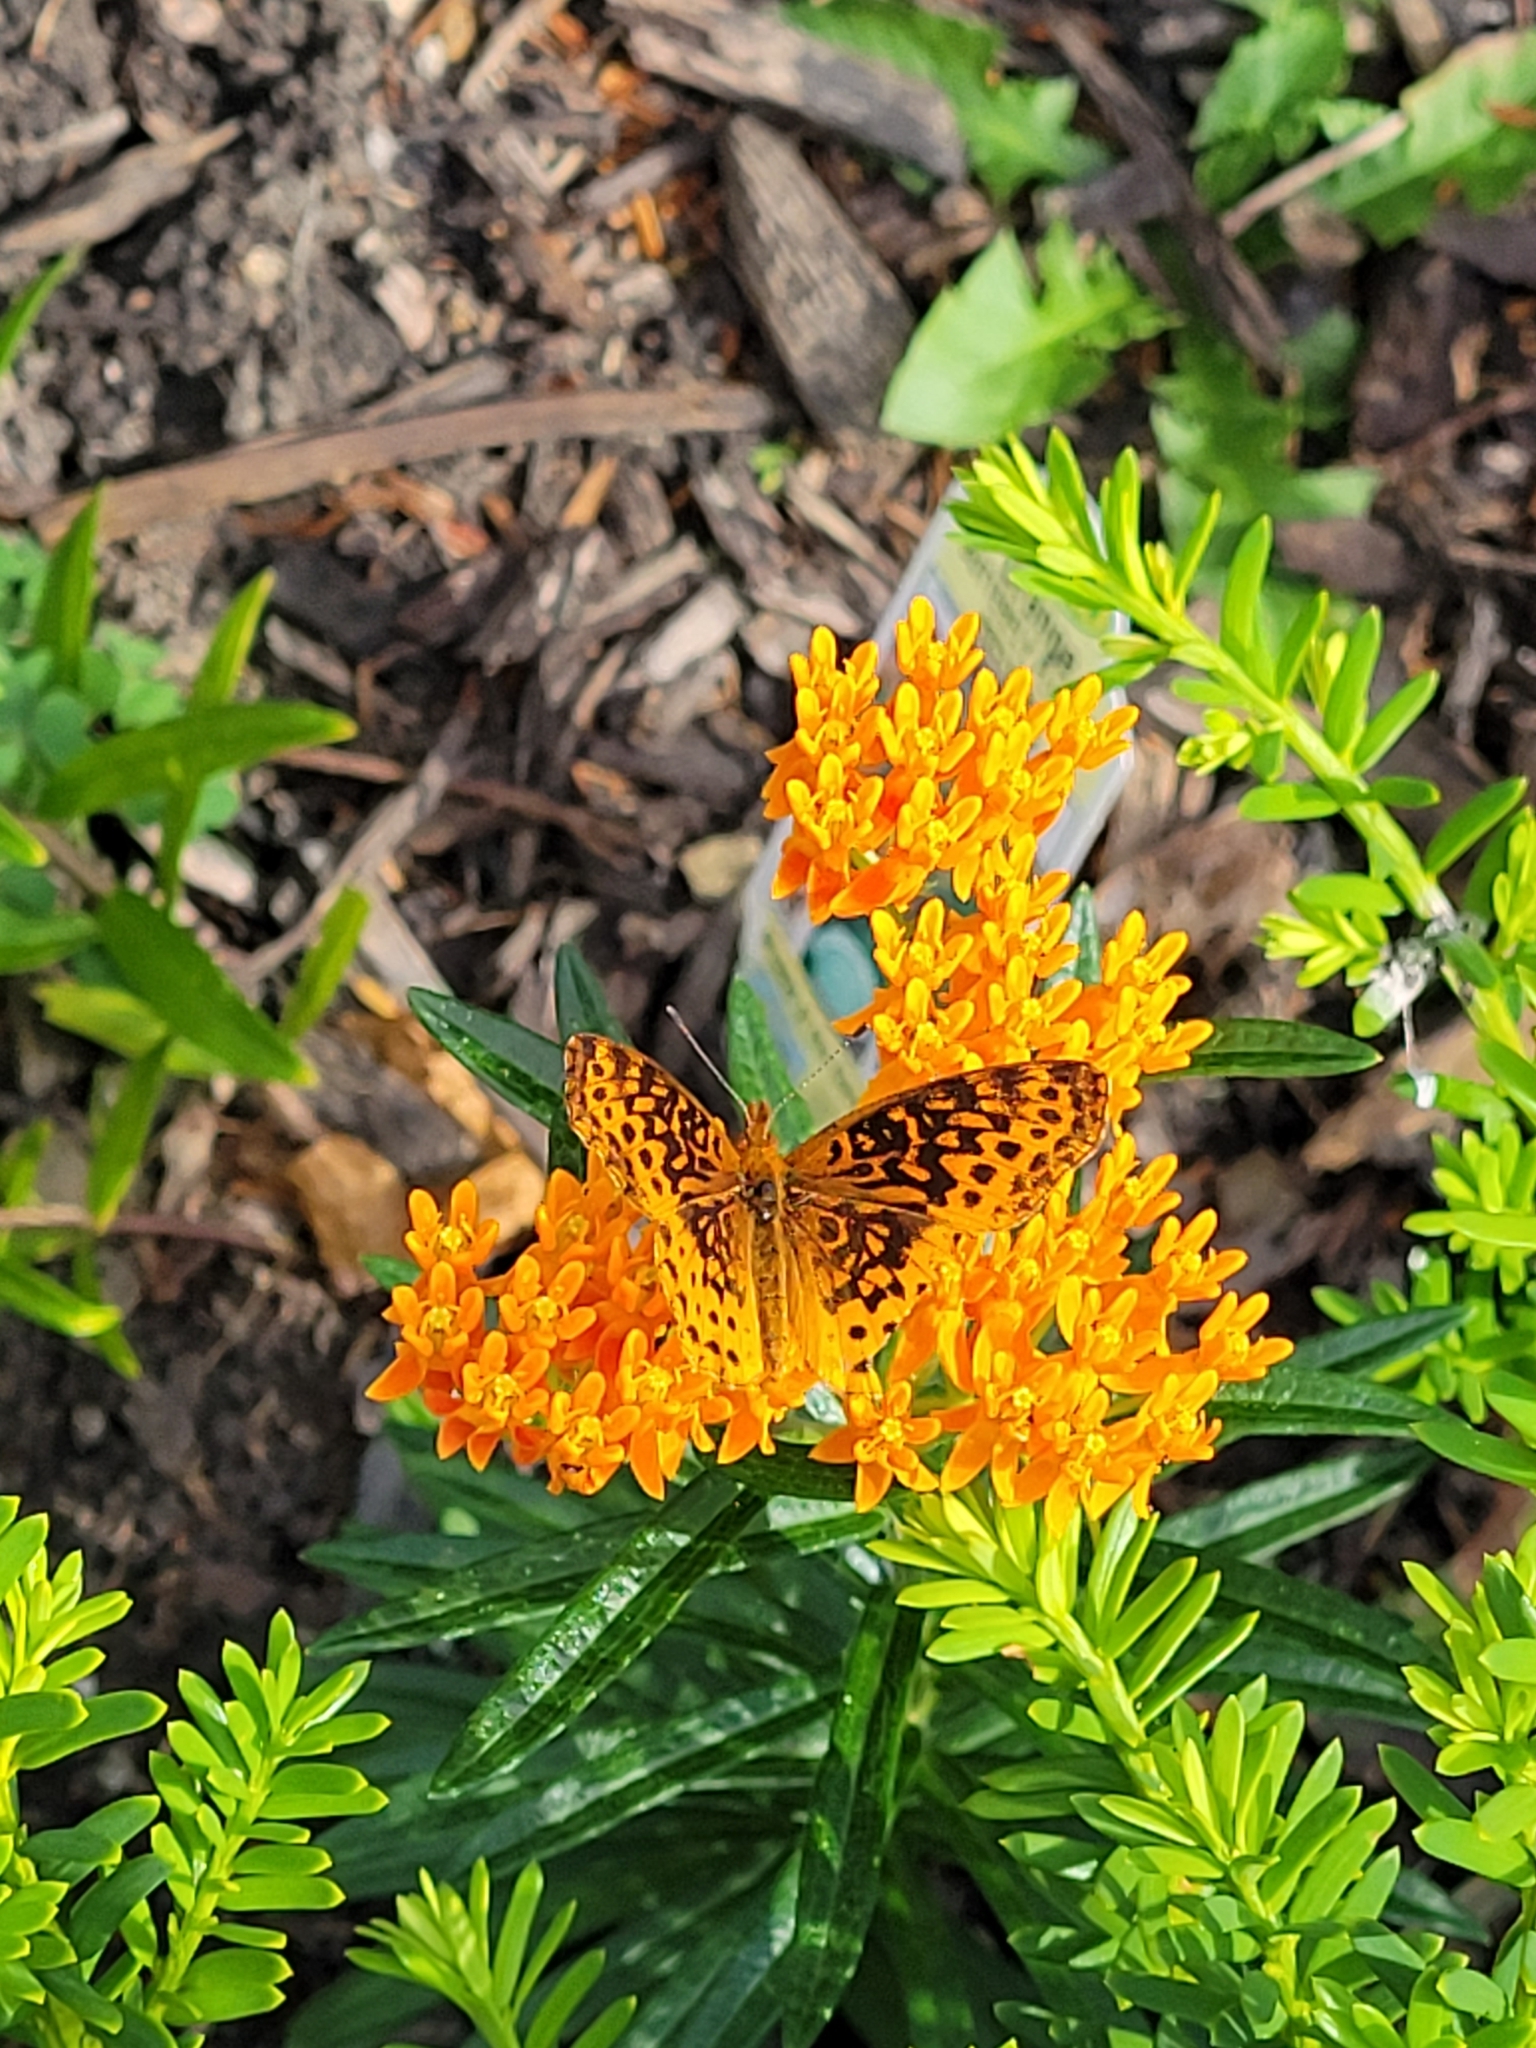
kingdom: Animalia
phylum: Arthropoda
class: Insecta
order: Lepidoptera
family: Nymphalidae
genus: Clossiana
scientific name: Clossiana toddi
